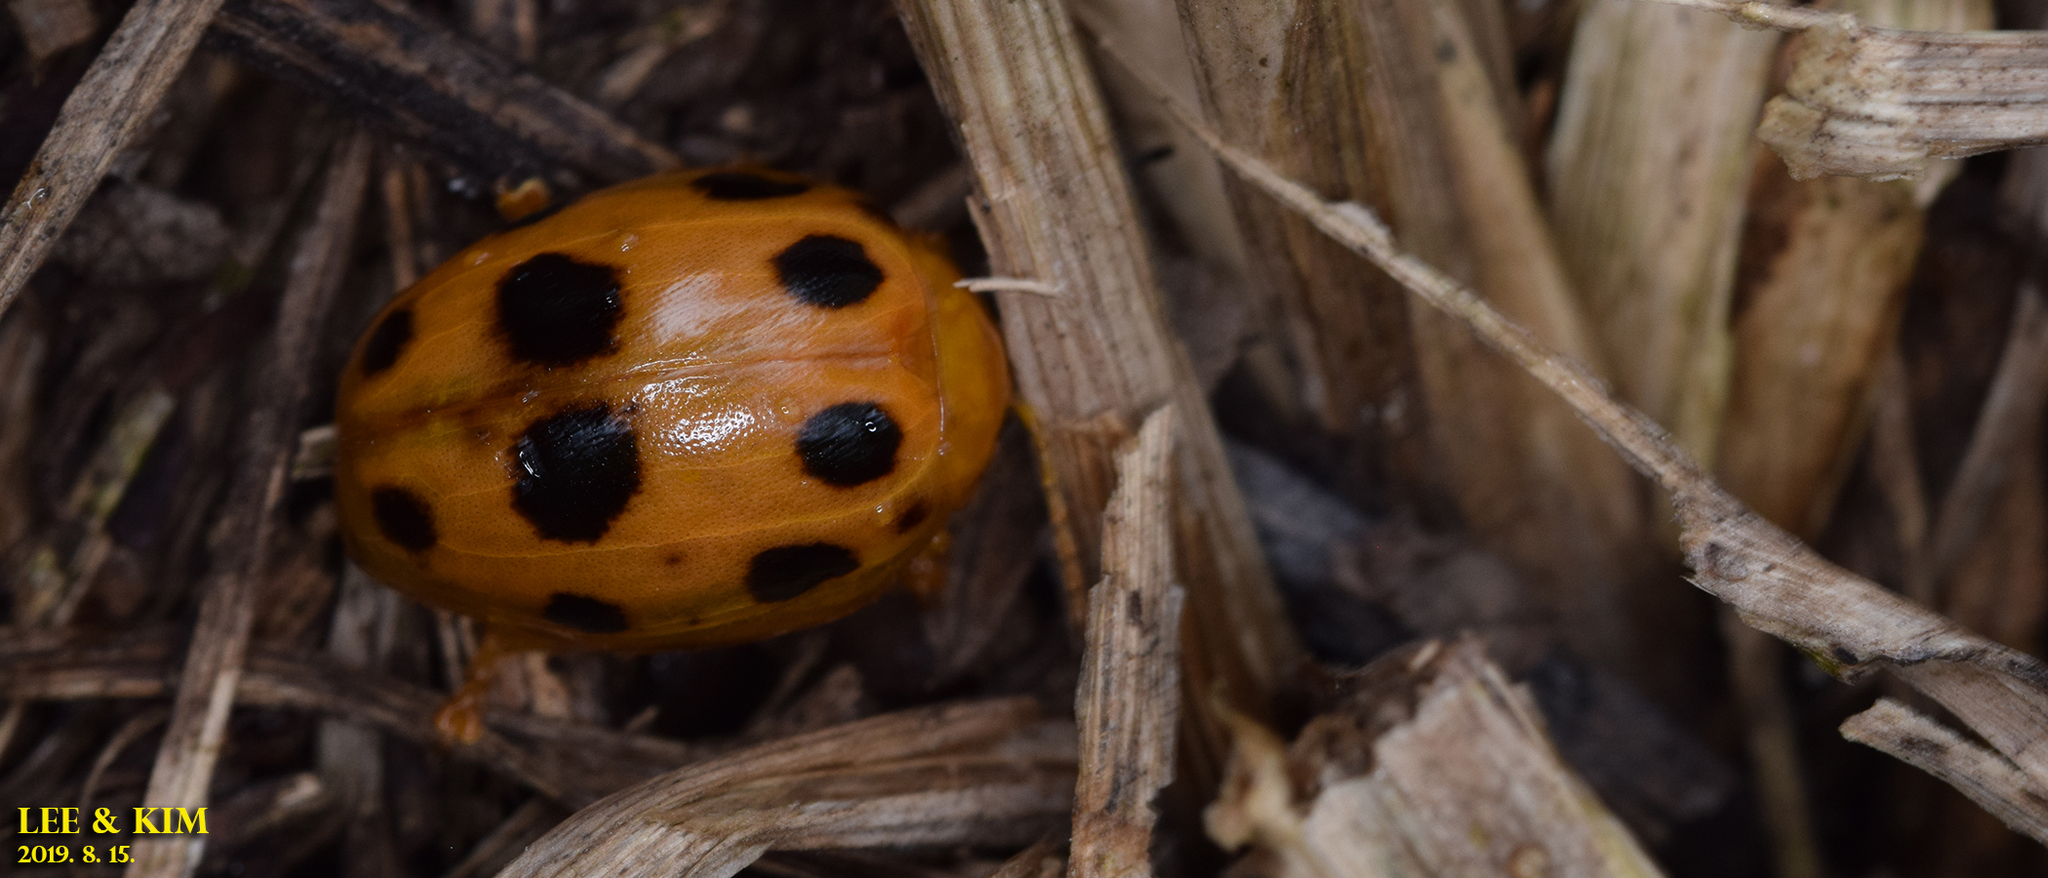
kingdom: Animalia
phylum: Arthropoda
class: Insecta
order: Coleoptera
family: Chrysomelidae
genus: Oides
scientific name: Oides decempunctata
